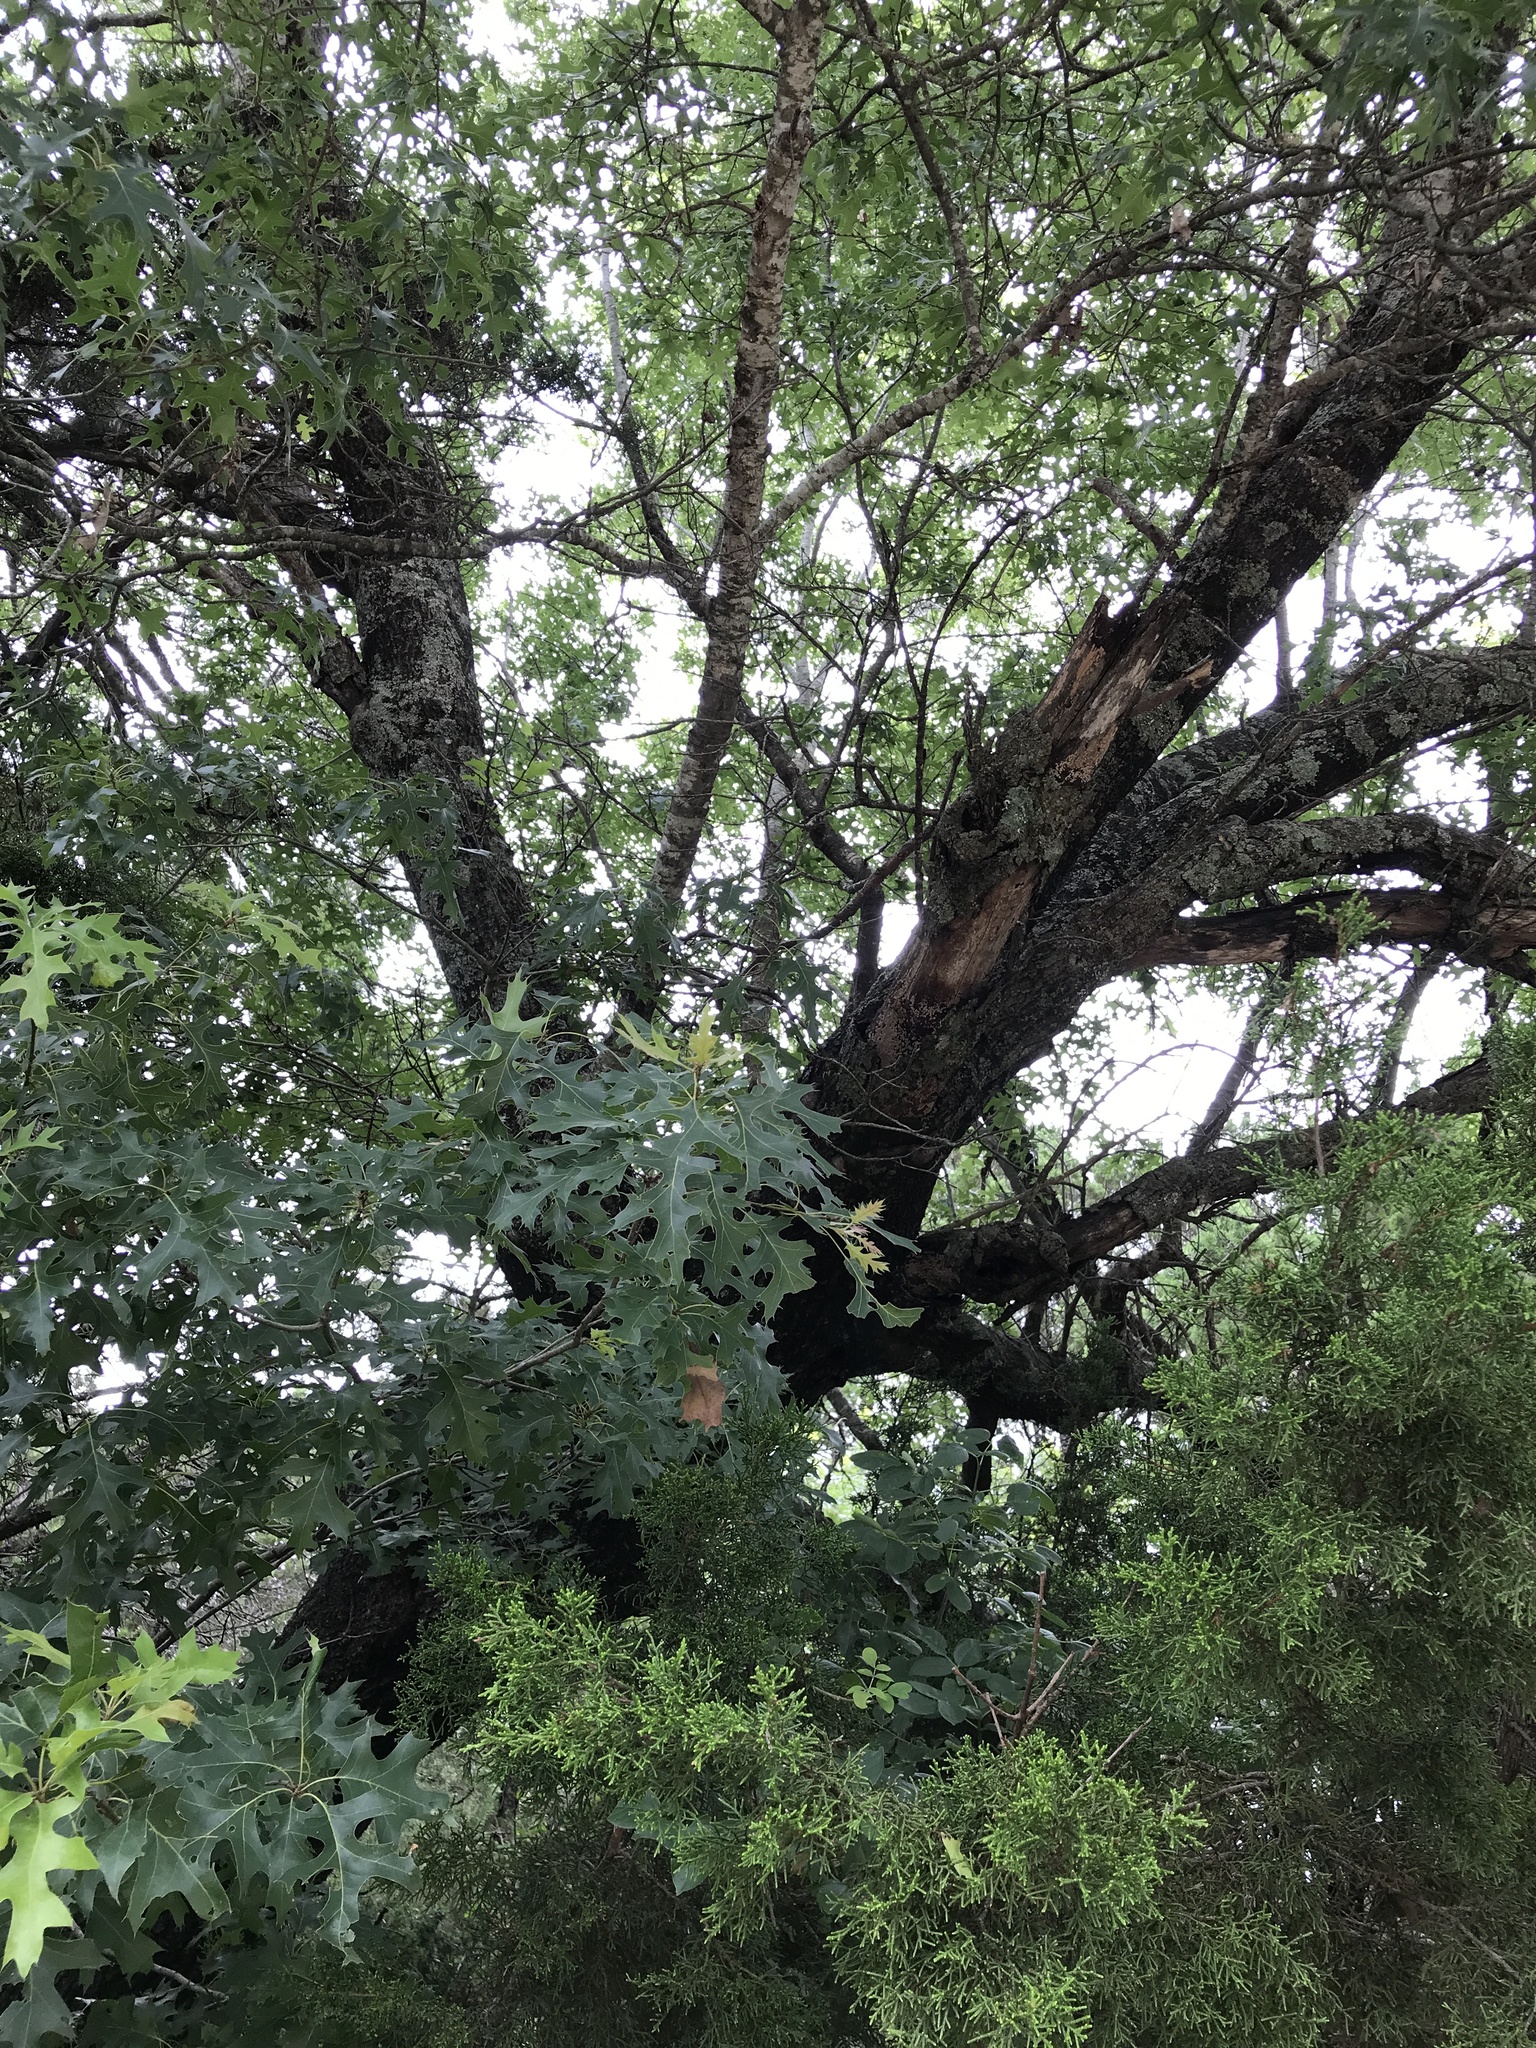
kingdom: Plantae
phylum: Tracheophyta
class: Magnoliopsida
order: Fagales
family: Fagaceae
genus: Quercus
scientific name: Quercus buckleyi
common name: Buckley oak
